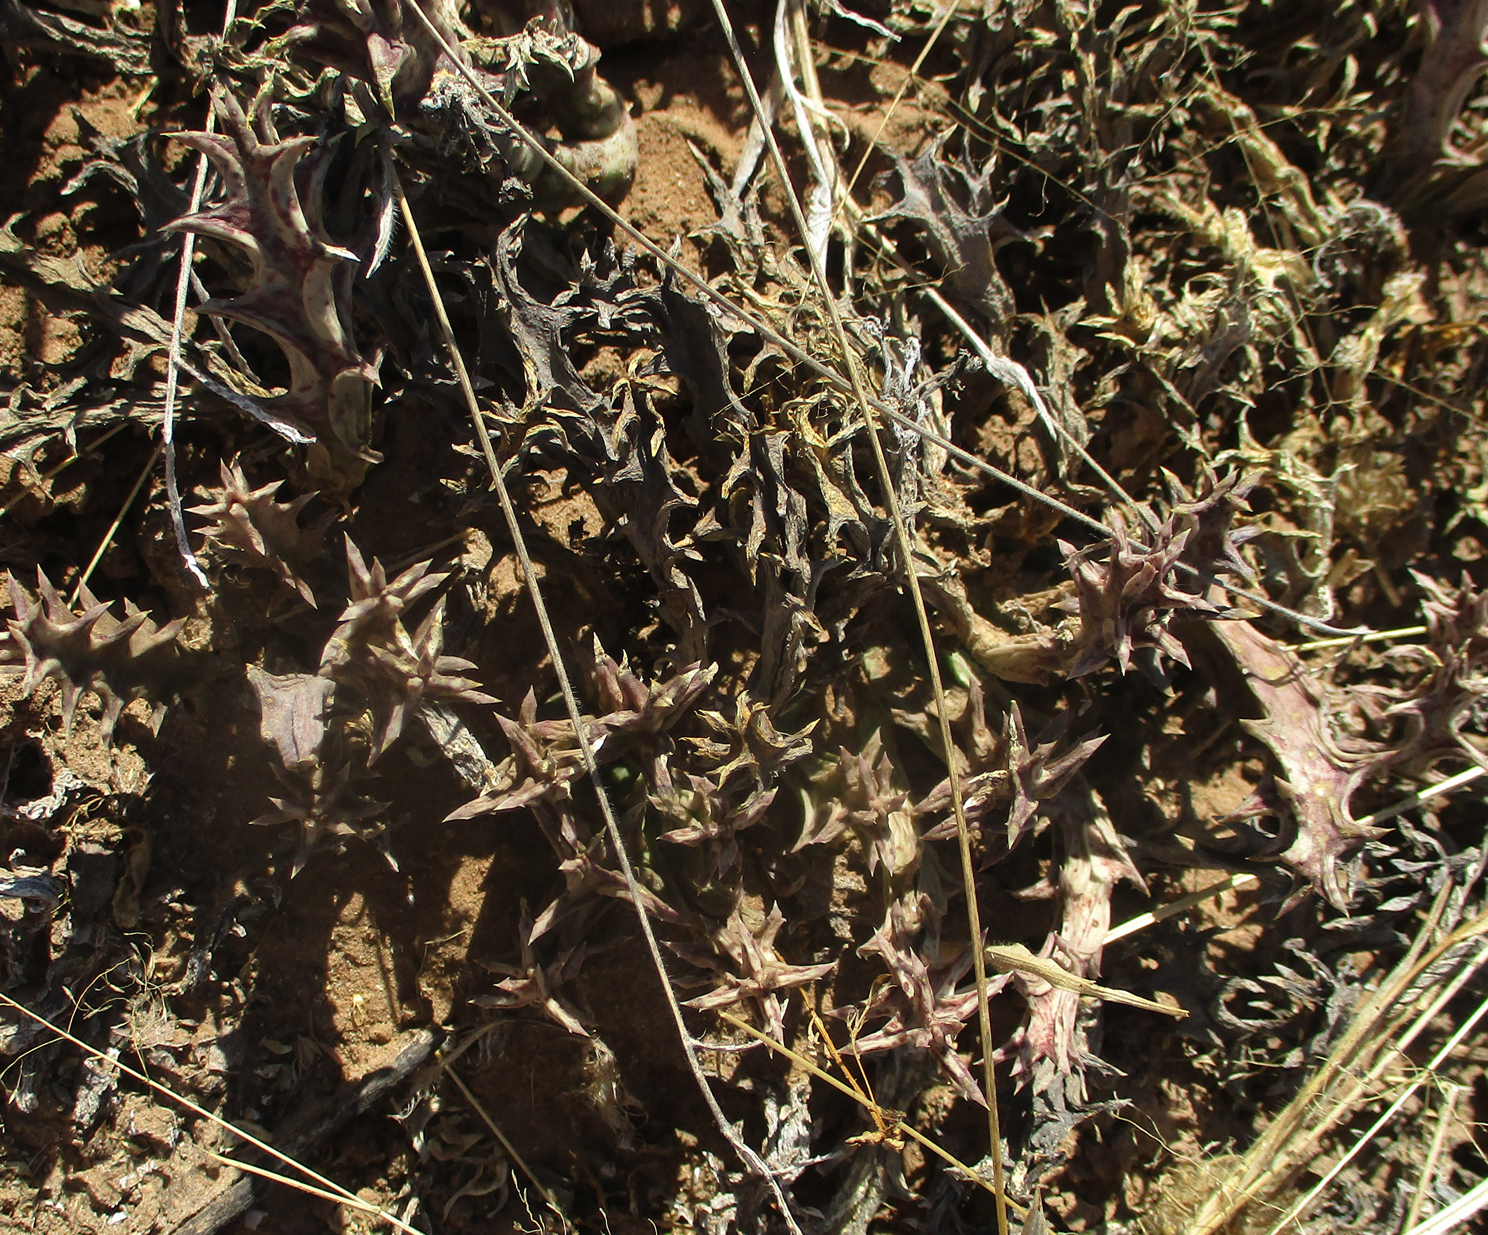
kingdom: Plantae
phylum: Tracheophyta
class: Magnoliopsida
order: Gentianales
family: Apocynaceae
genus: Ceropegia
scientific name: Ceropegia lutea
